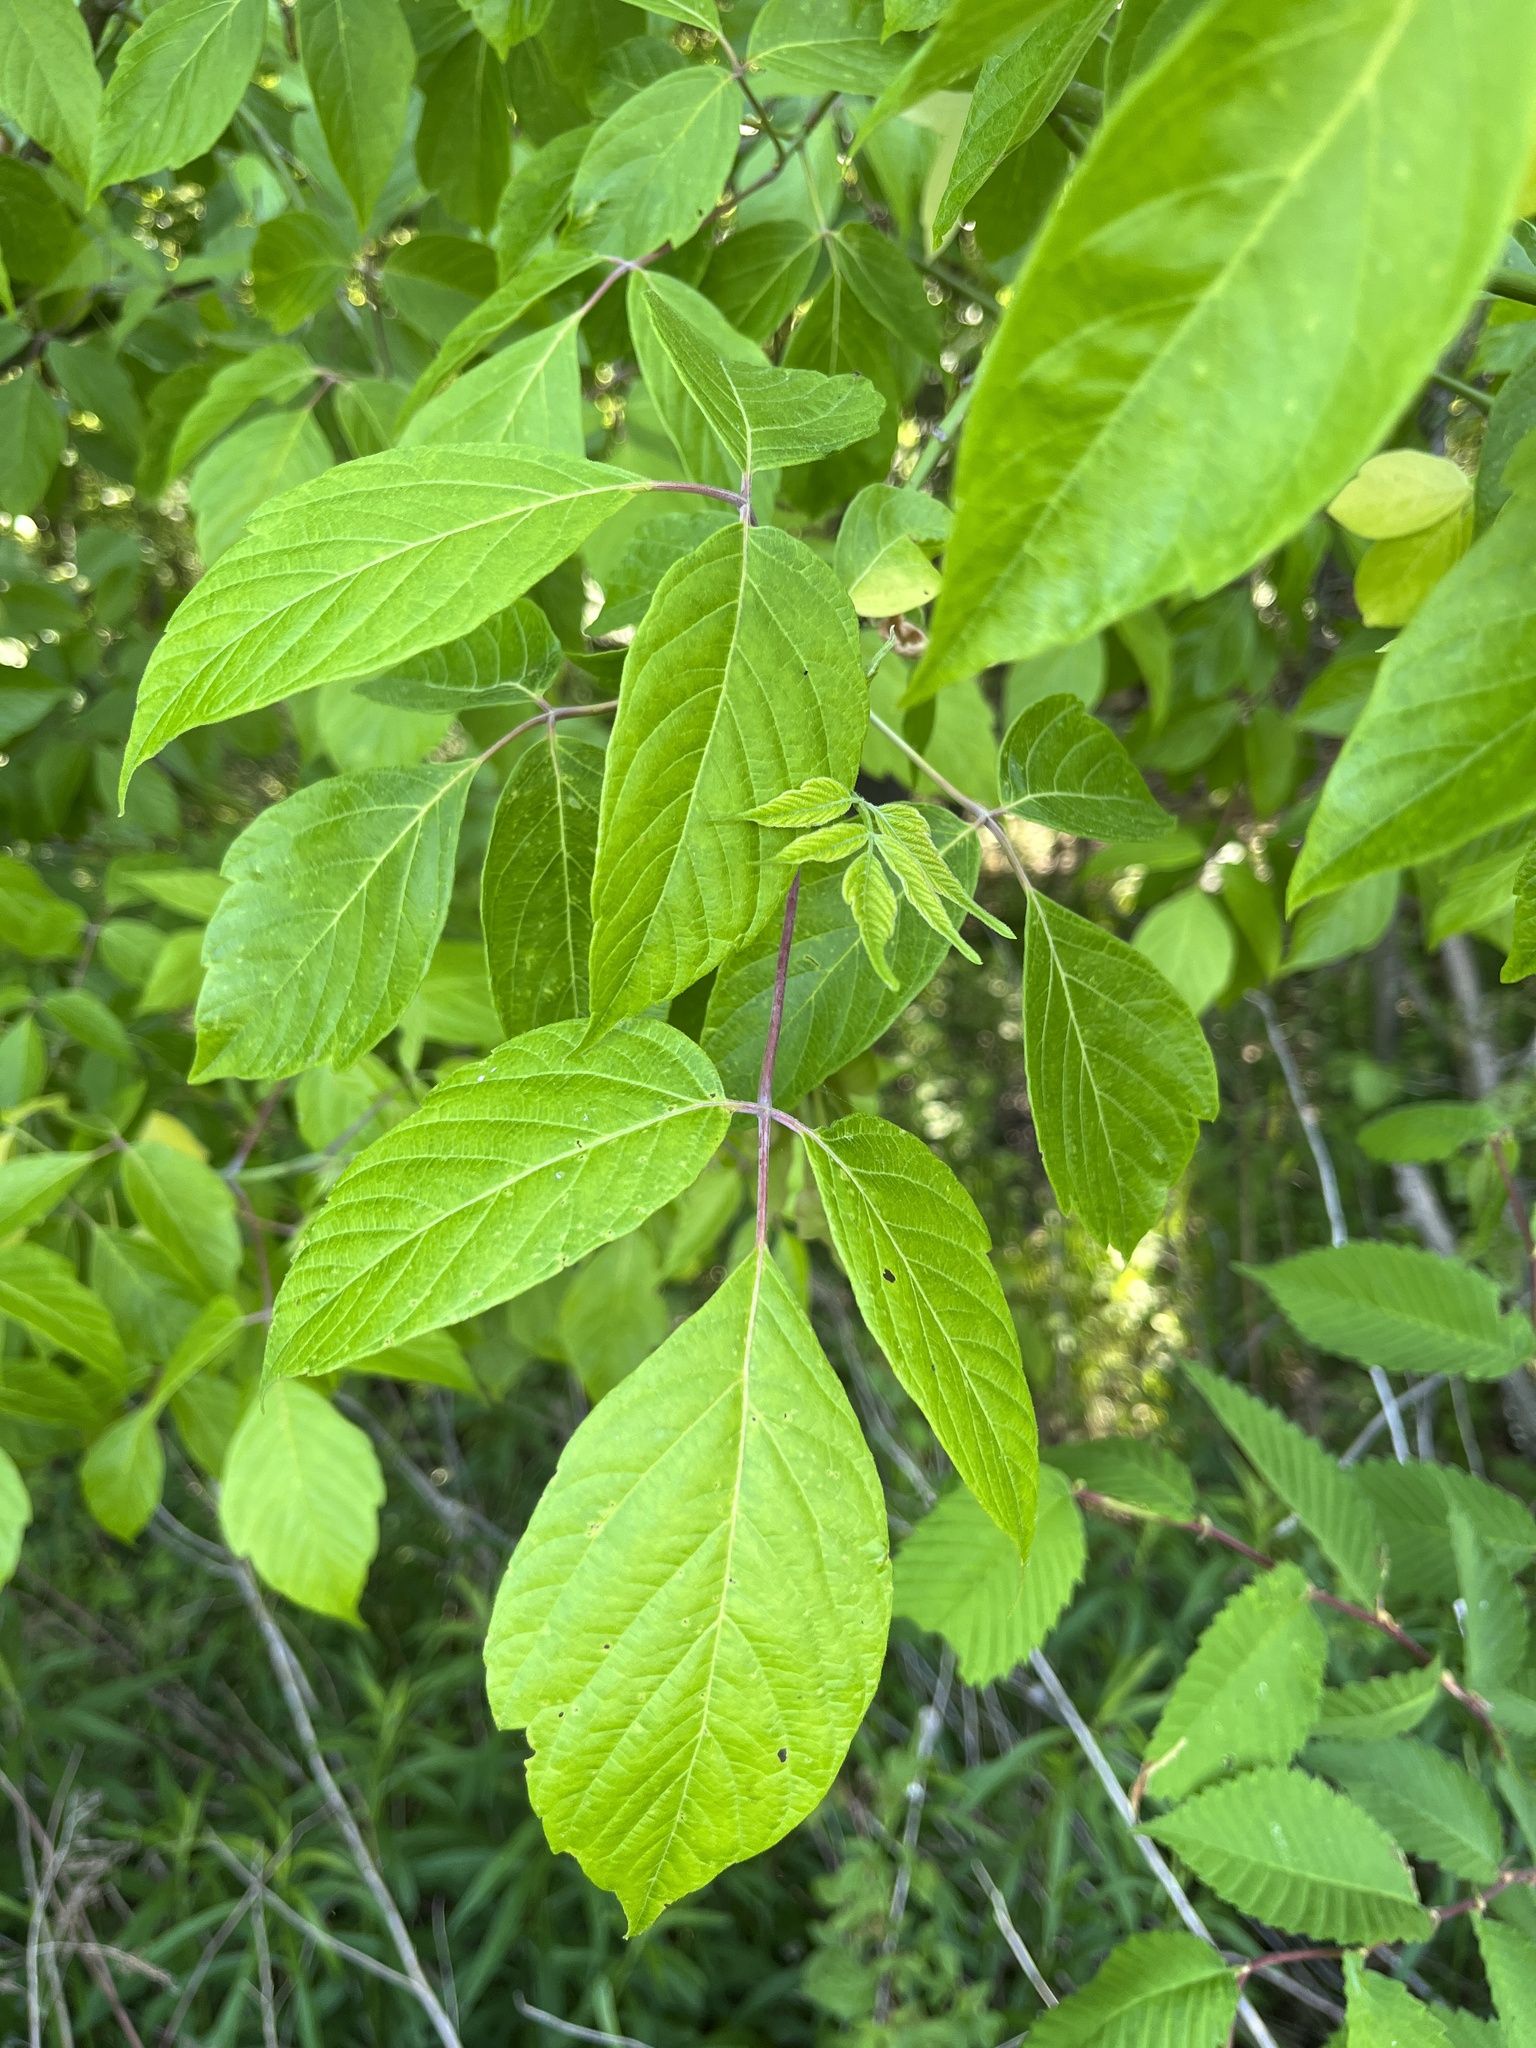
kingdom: Plantae
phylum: Tracheophyta
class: Magnoliopsida
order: Sapindales
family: Sapindaceae
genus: Acer
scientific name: Acer negundo
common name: Ashleaf maple
